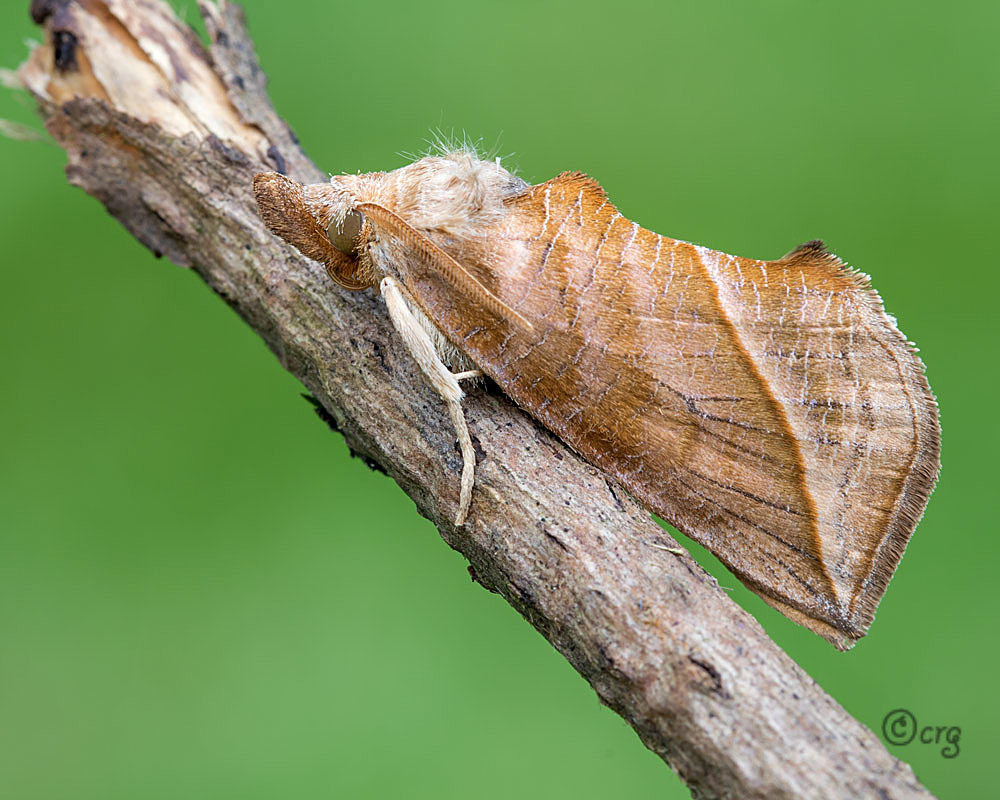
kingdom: Animalia
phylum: Arthropoda
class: Insecta
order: Lepidoptera
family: Erebidae
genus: Calyptra
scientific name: Calyptra canadensis
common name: Canadian owlet
